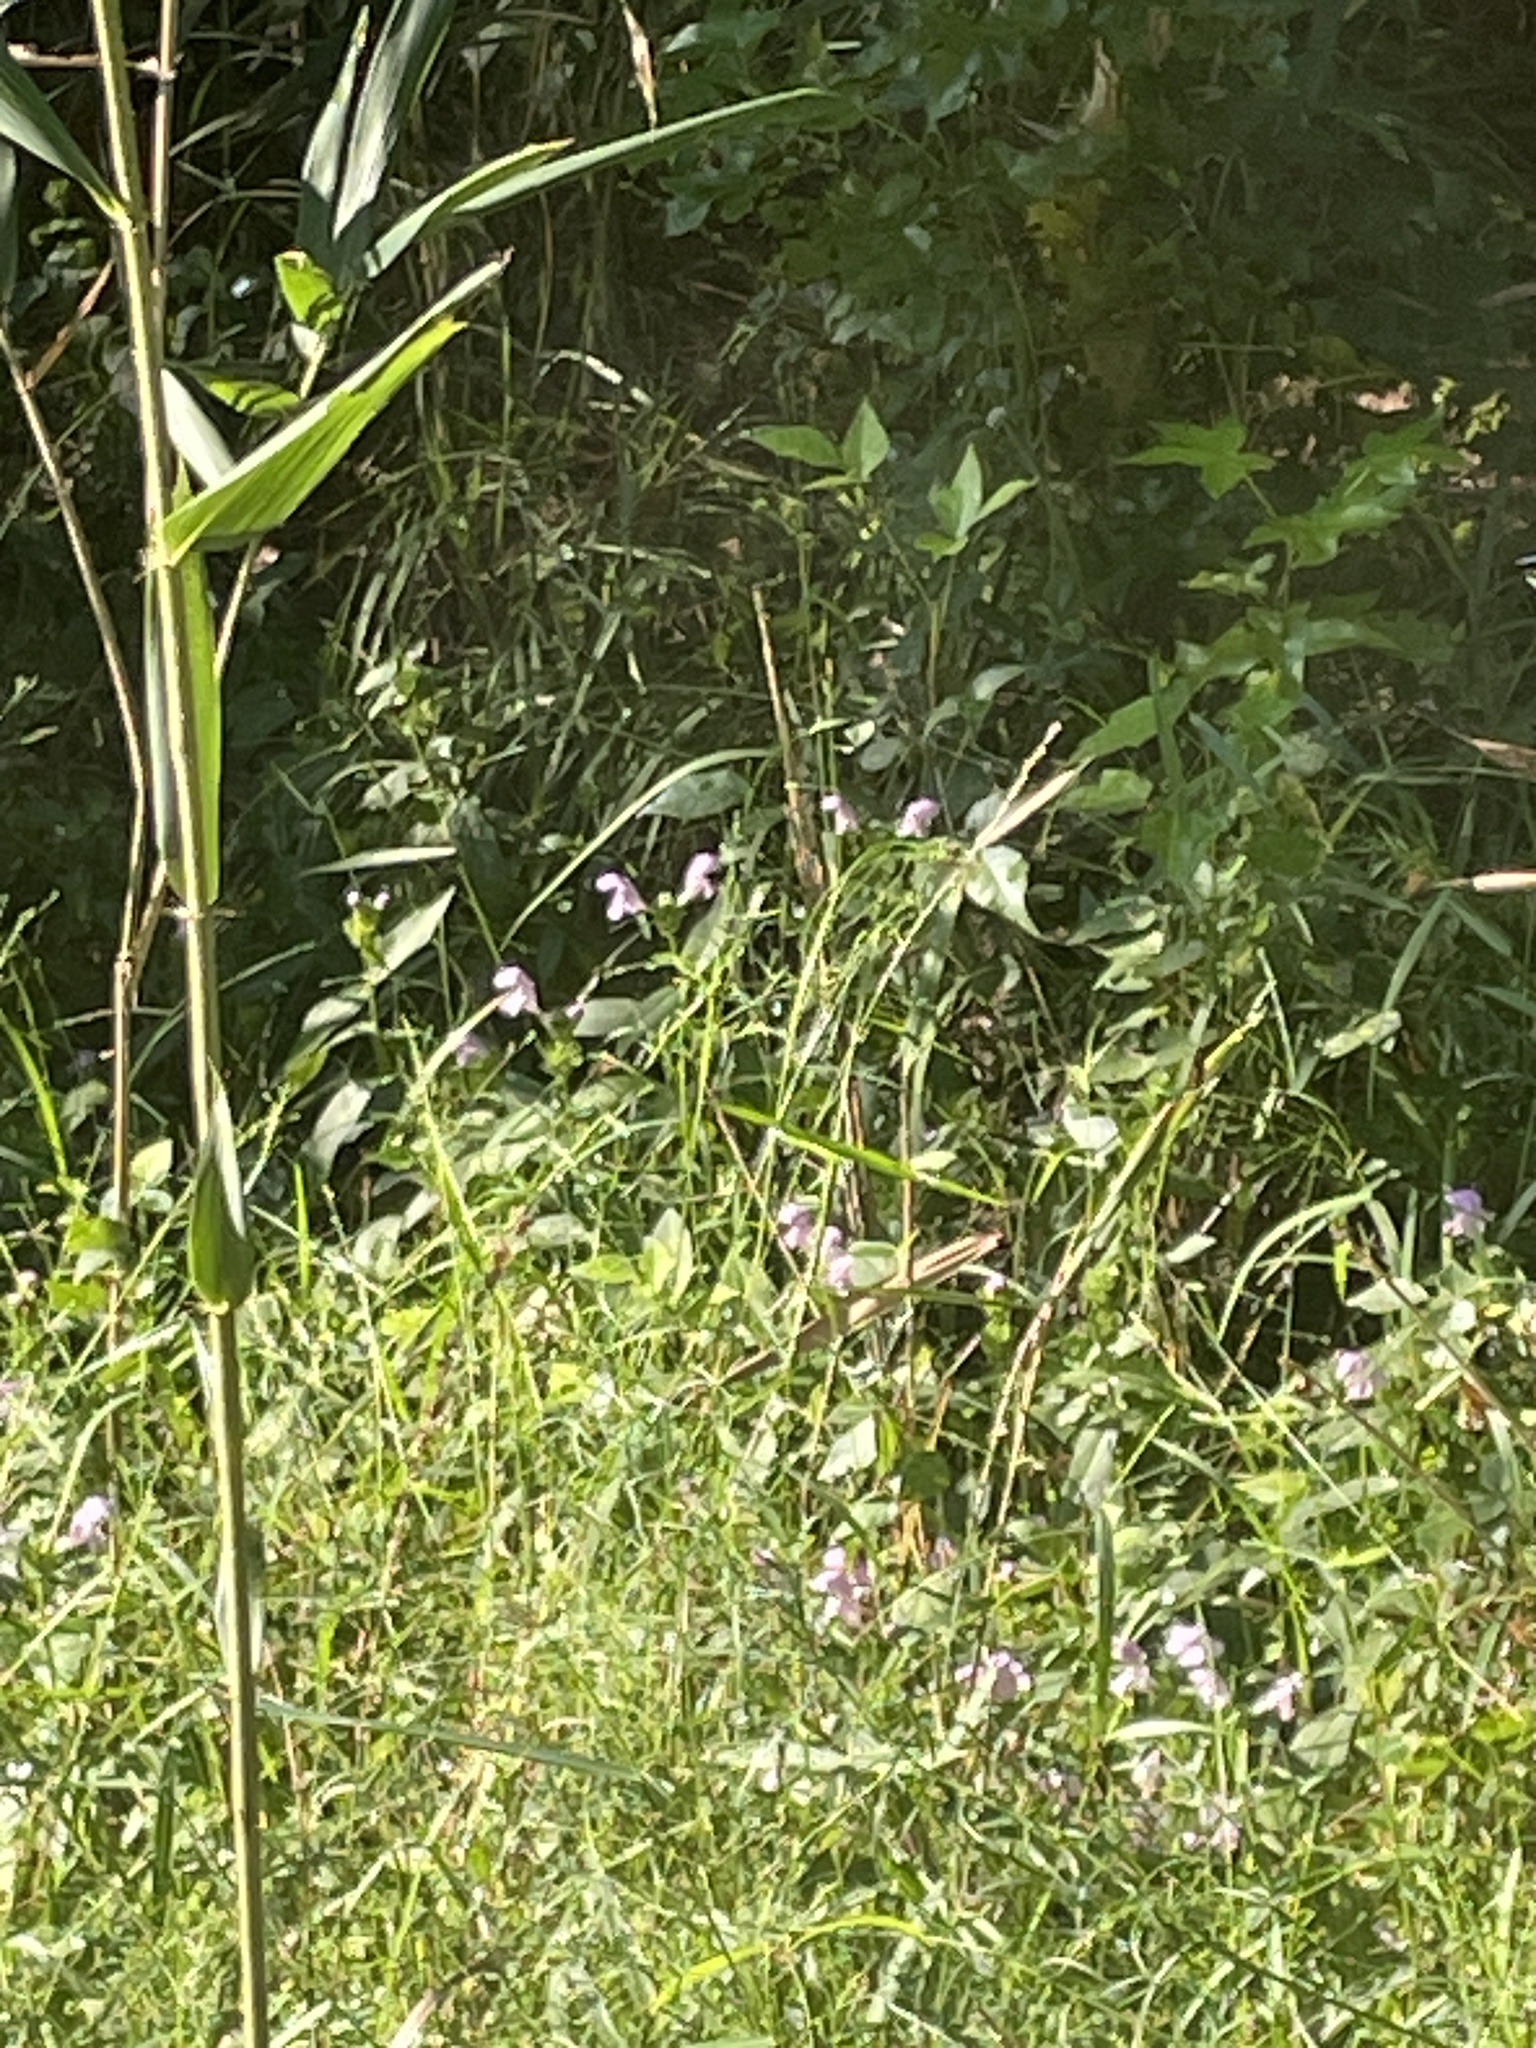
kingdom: Plantae
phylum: Tracheophyta
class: Magnoliopsida
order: Lamiales
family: Lamiaceae
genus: Macbridea
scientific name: Macbridea caroliniana
